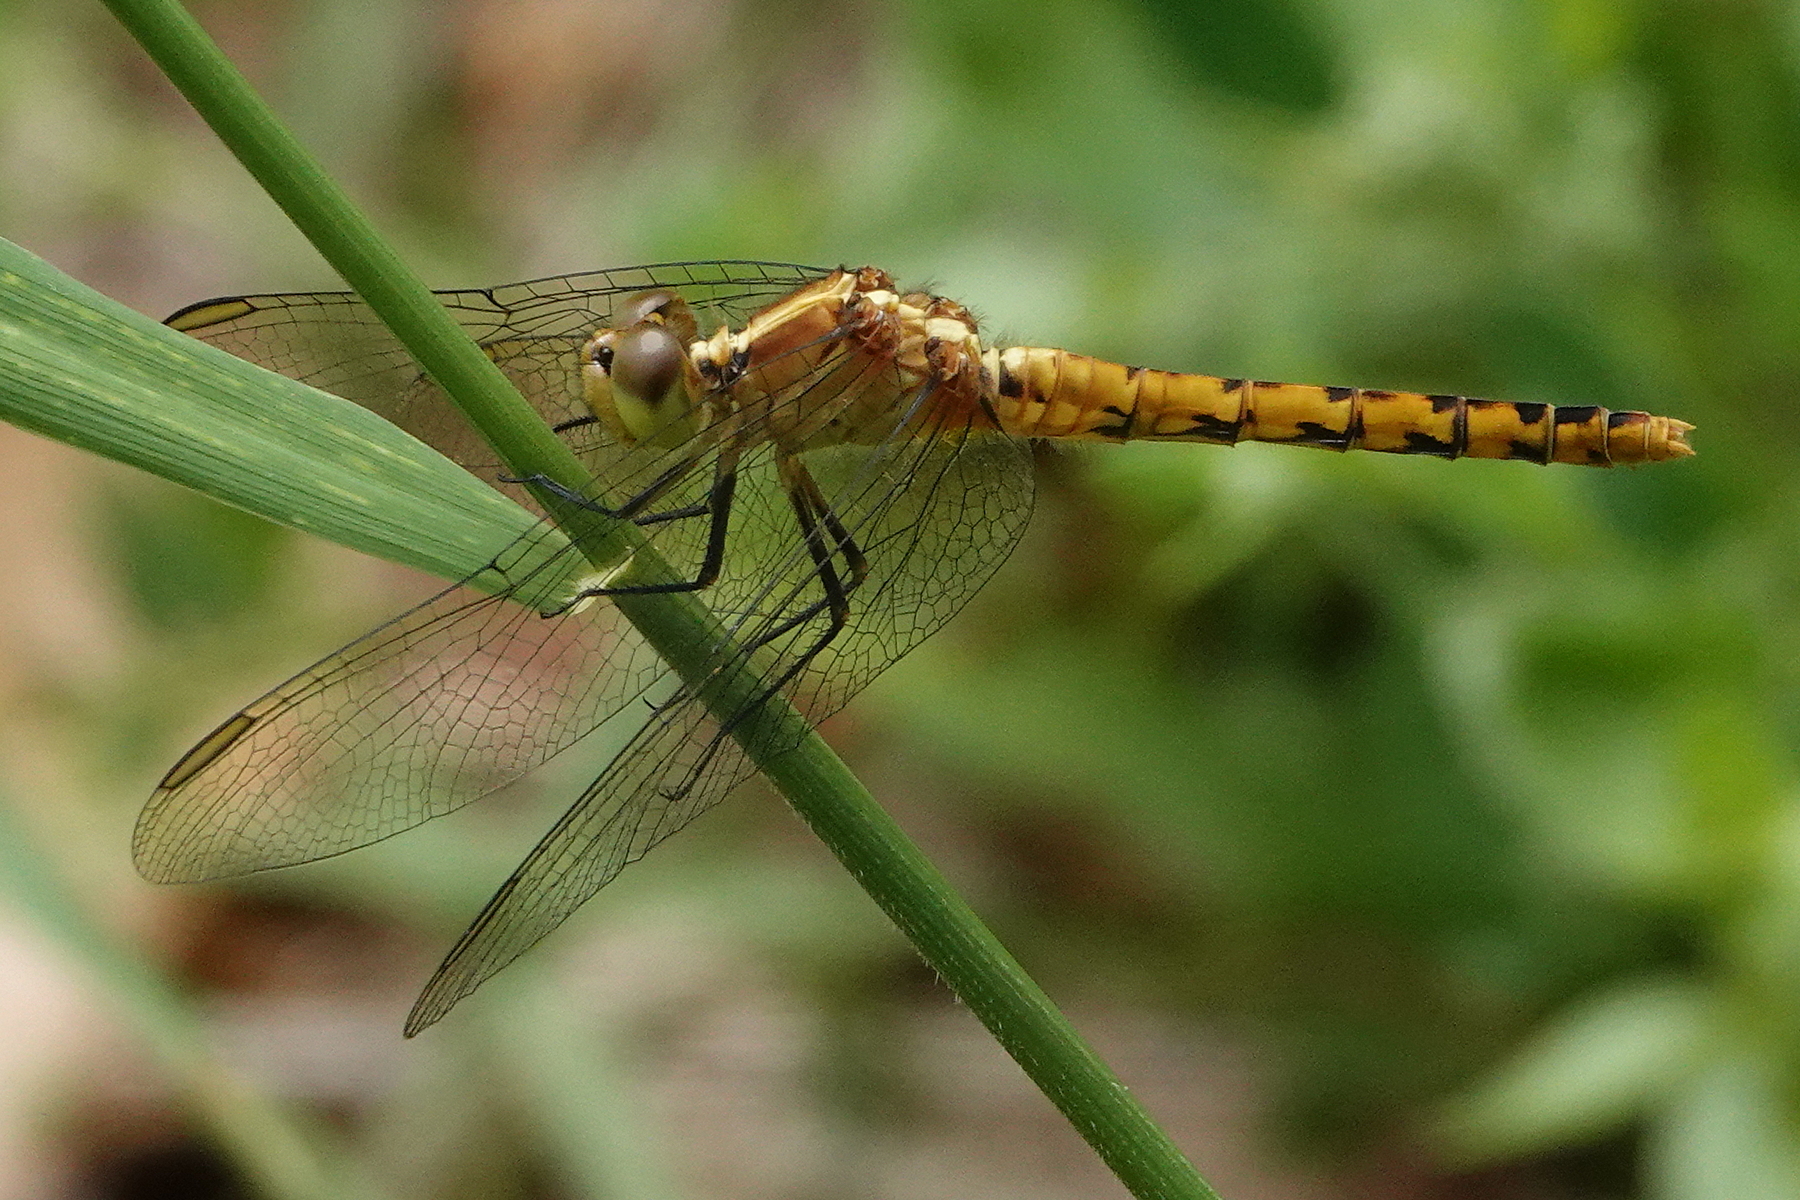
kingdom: Animalia
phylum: Arthropoda
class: Insecta
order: Odonata
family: Libellulidae
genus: Diplacodes
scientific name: Diplacodes melanopsis
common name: Black-faced percher
